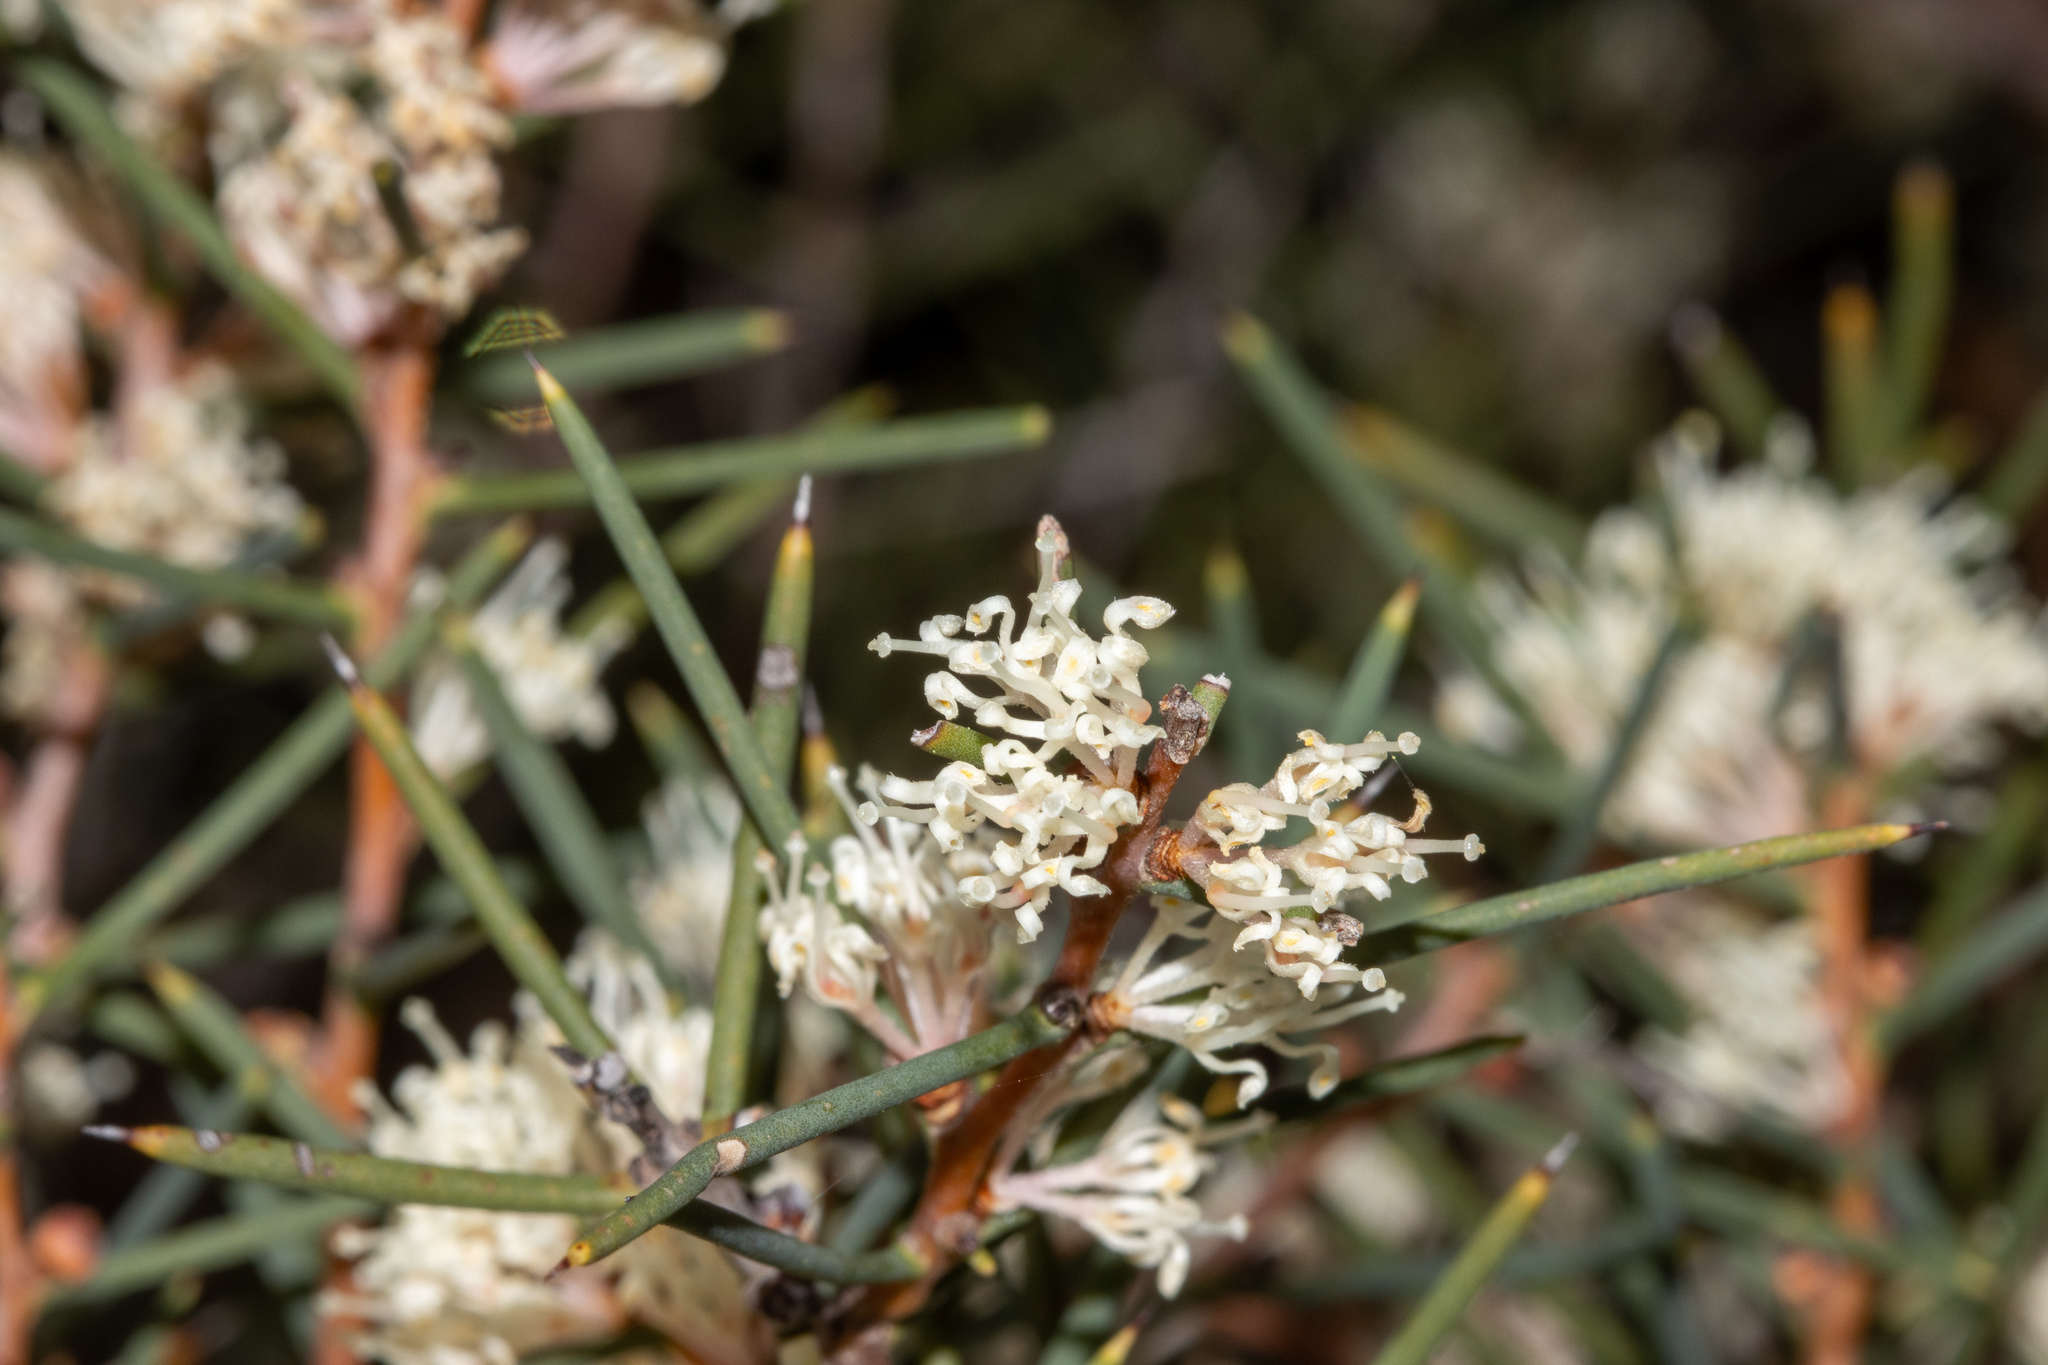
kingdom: Plantae
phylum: Tracheophyta
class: Magnoliopsida
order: Proteales
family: Proteaceae
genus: Hakea
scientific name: Hakea rugosa
